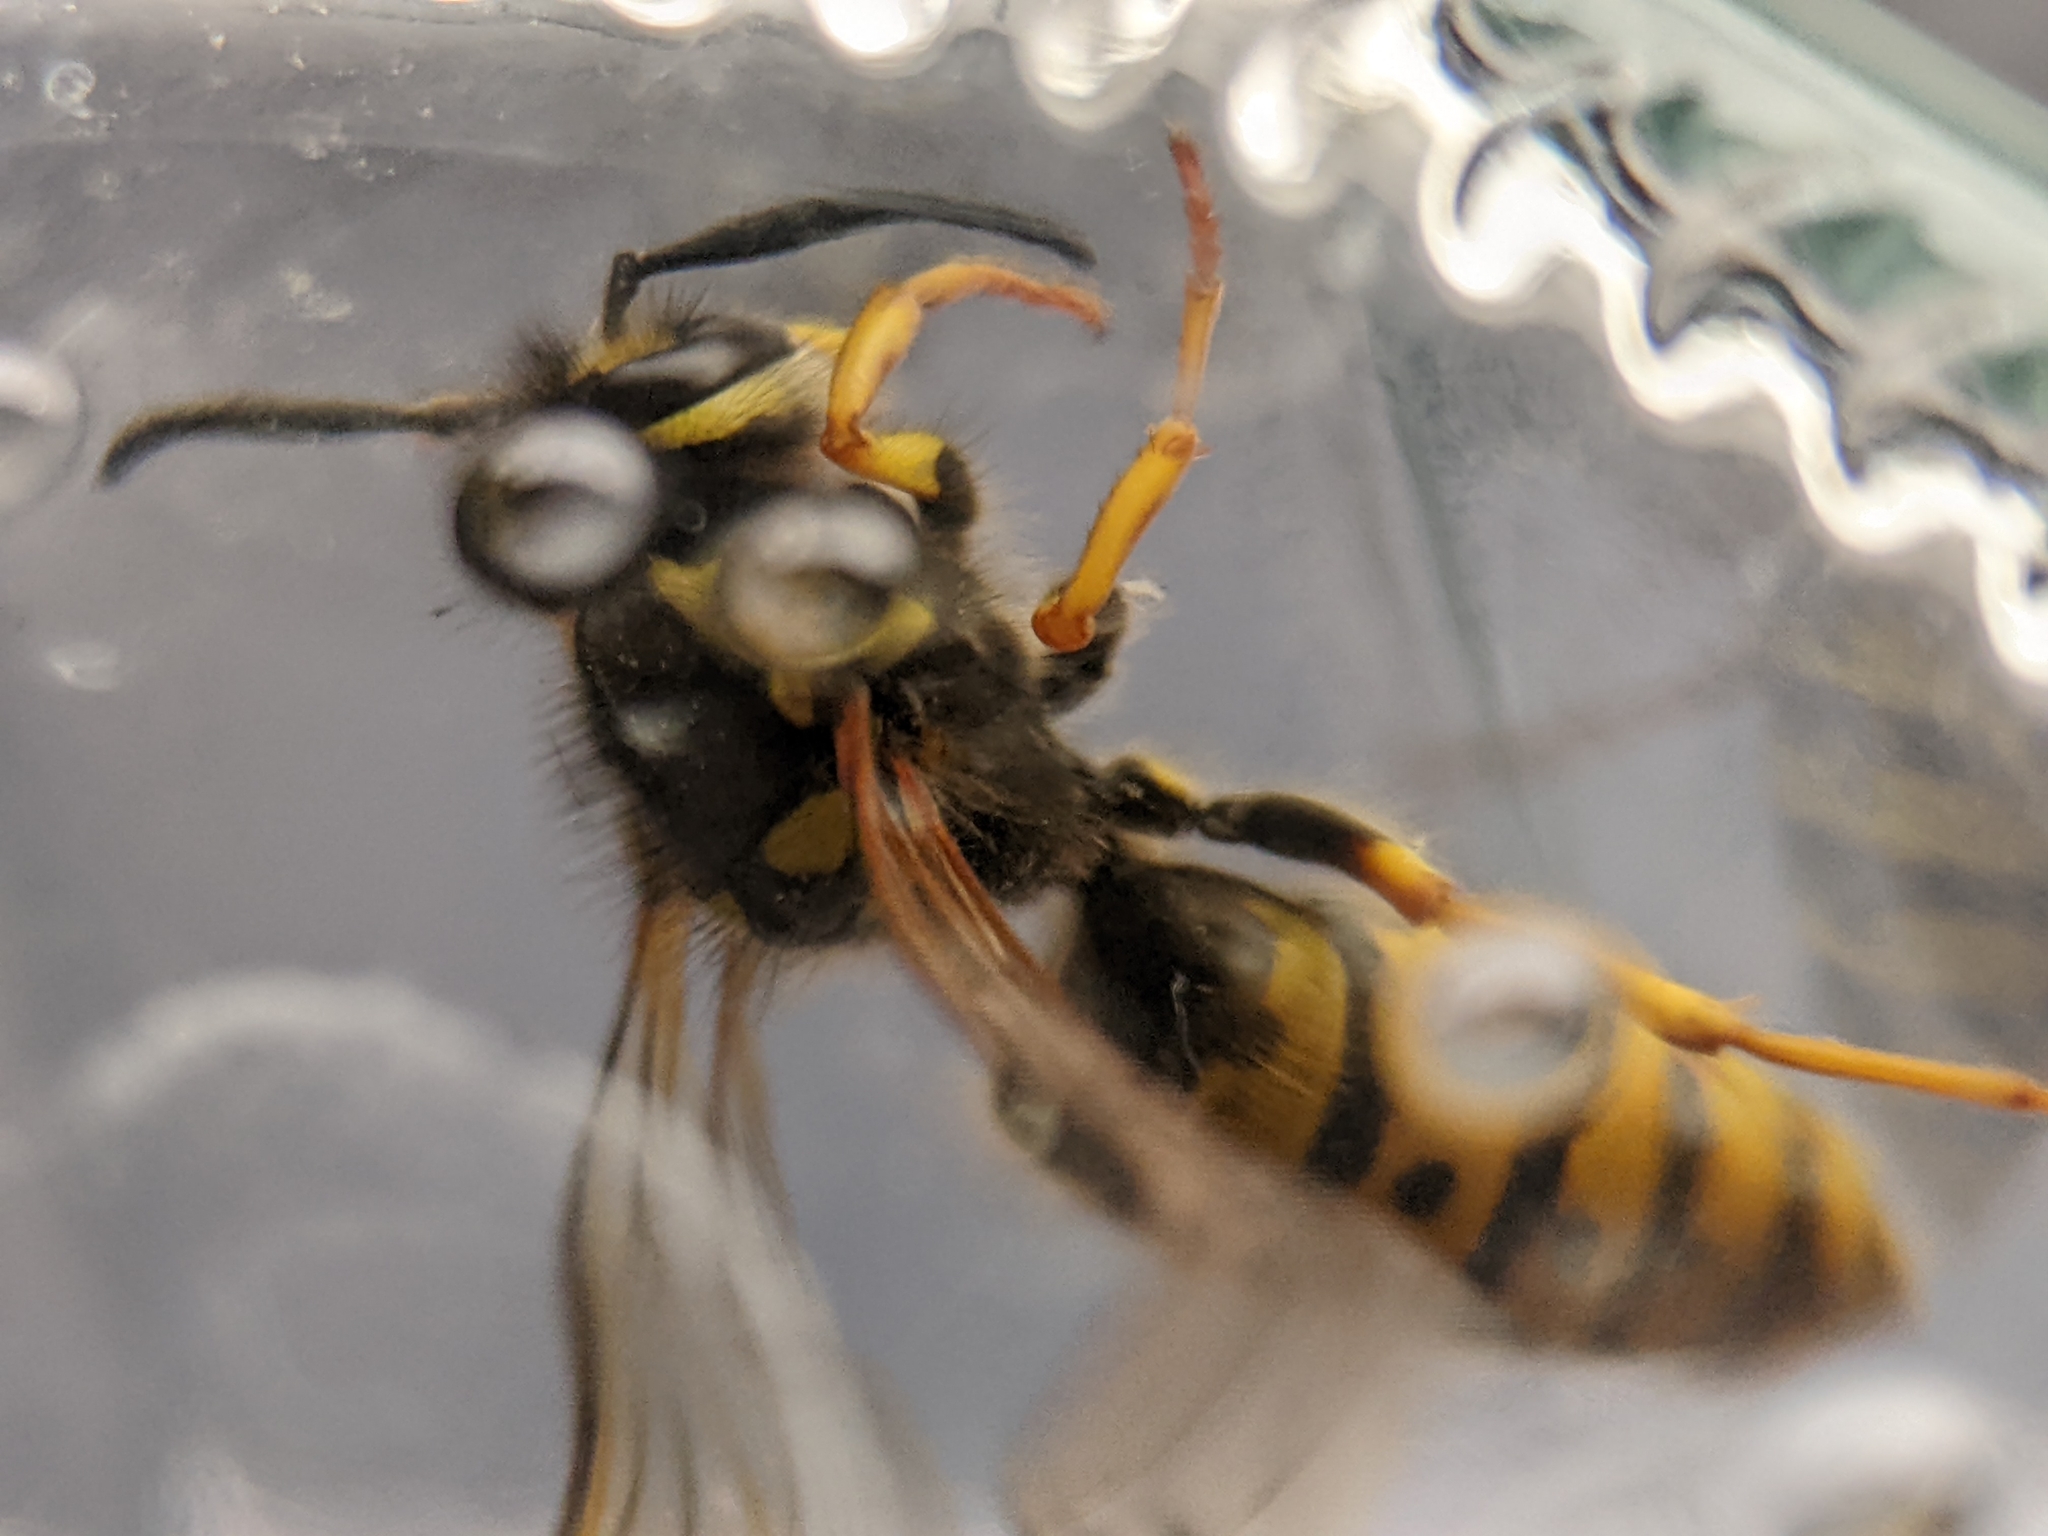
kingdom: Animalia
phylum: Arthropoda
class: Insecta
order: Hymenoptera
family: Vespidae
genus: Vespula
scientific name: Vespula germanica
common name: German wasp
